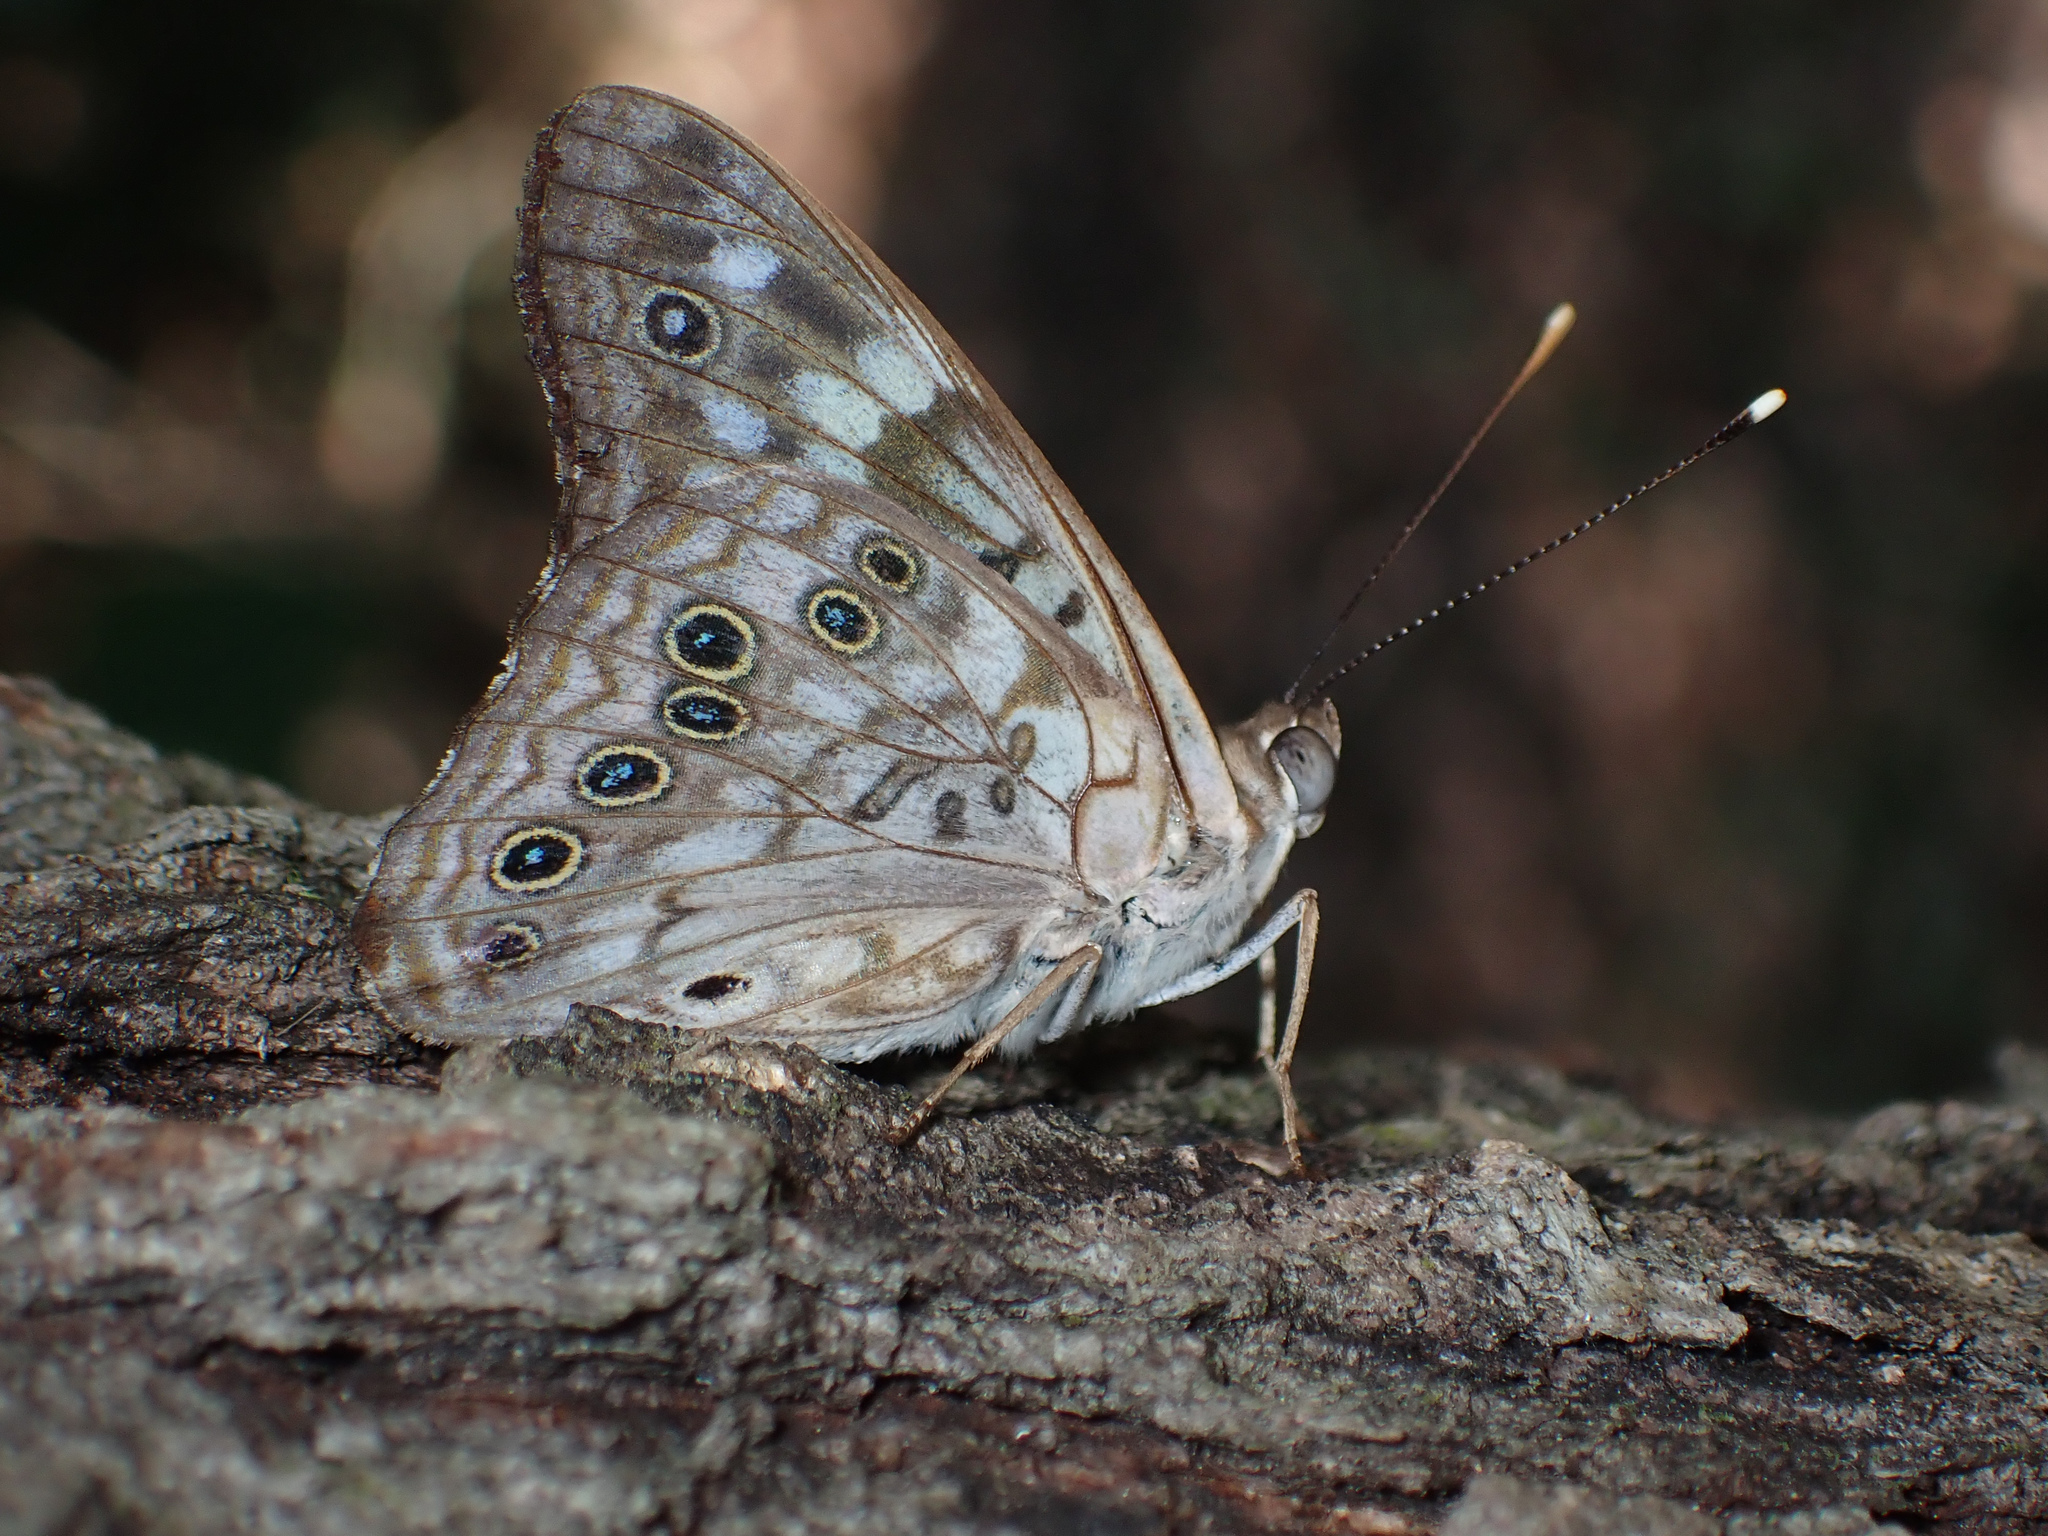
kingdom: Animalia
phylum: Arthropoda
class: Insecta
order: Lepidoptera
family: Nymphalidae
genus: Asterocampa
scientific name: Asterocampa celtis
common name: Hackberry emperor
